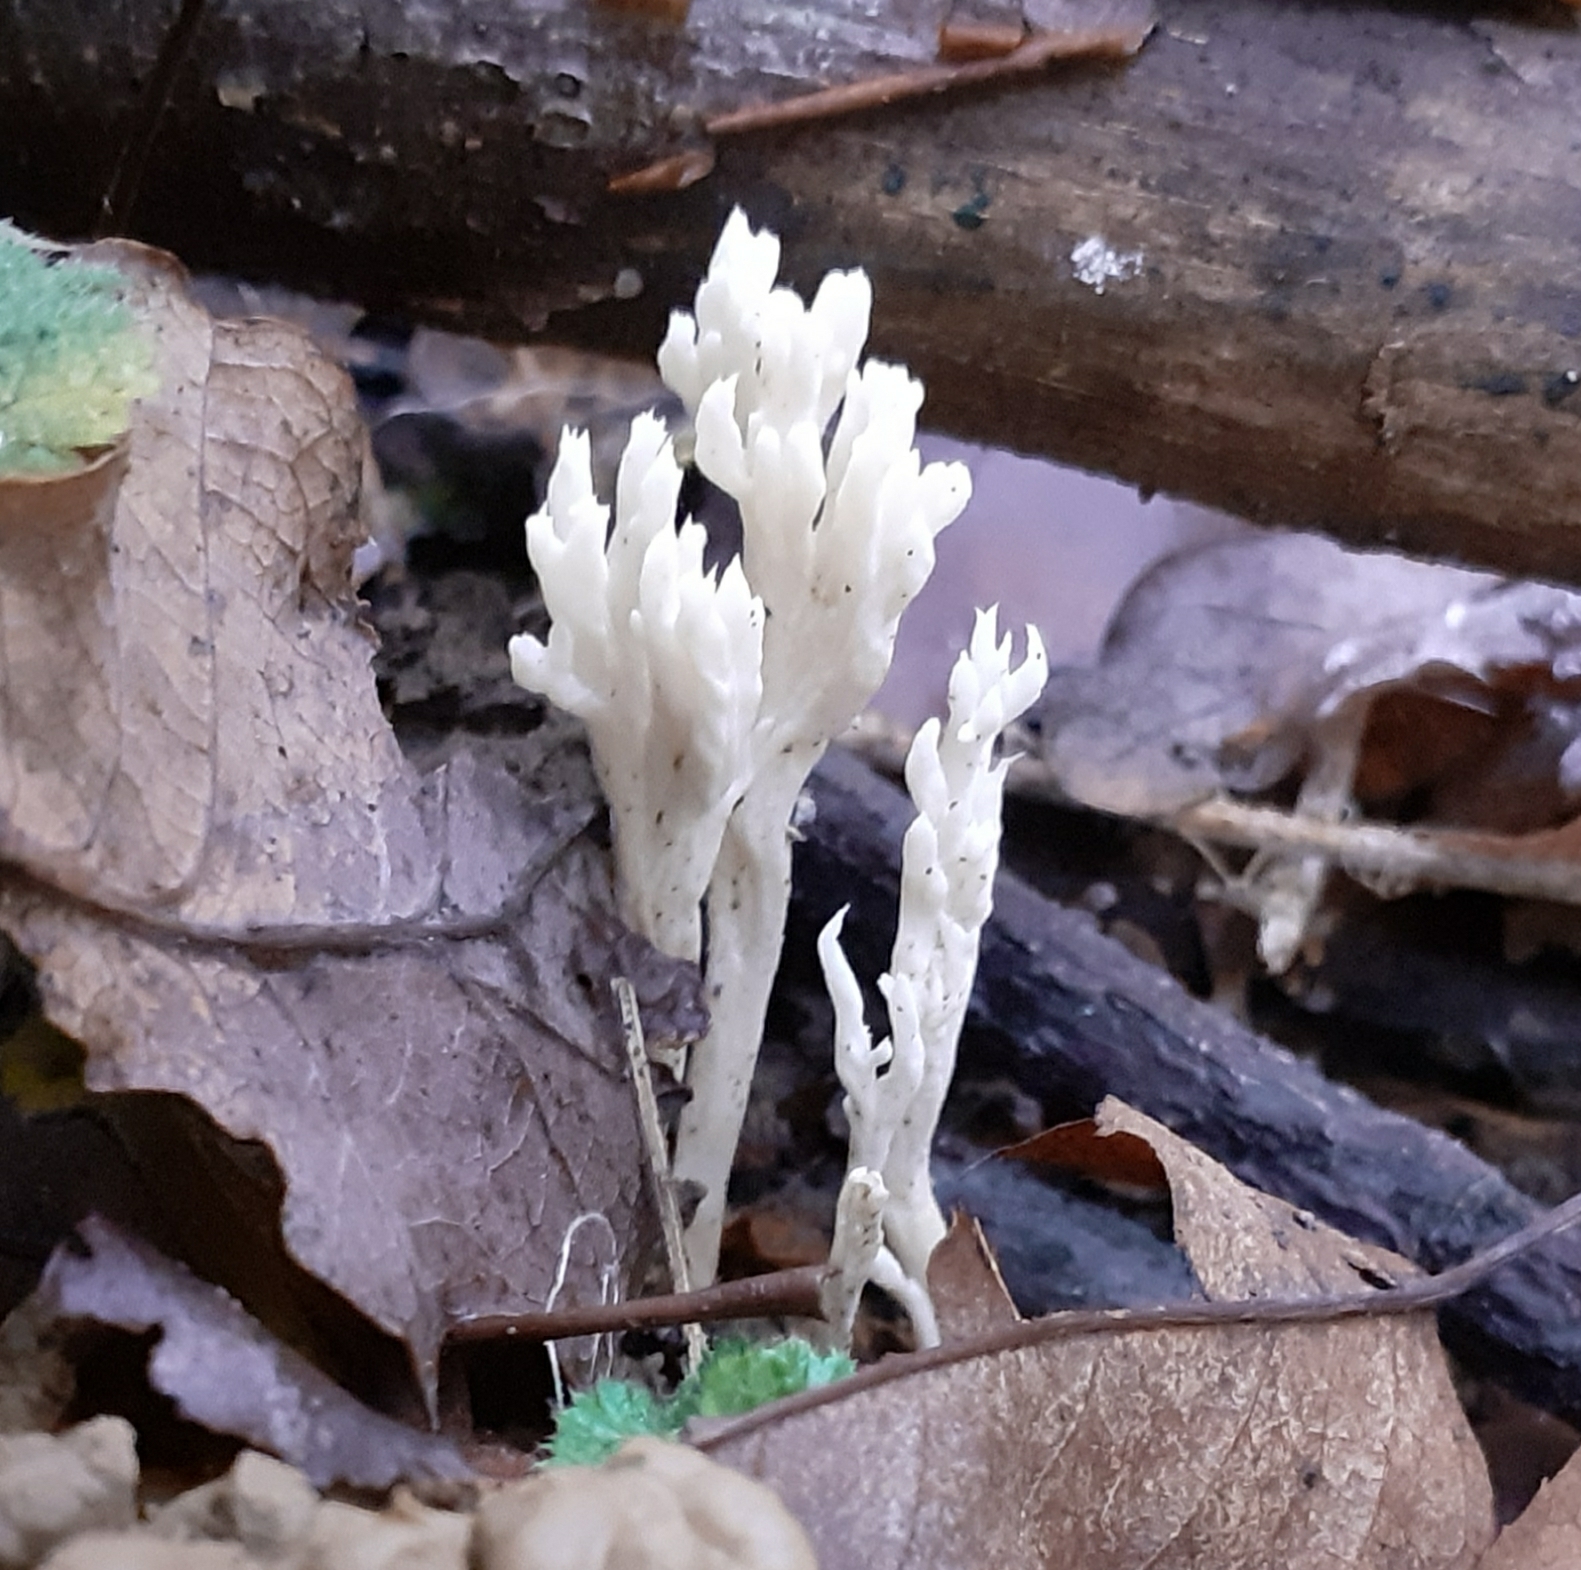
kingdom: Fungi
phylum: Basidiomycota
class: Agaricomycetes
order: Cantharellales
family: Hydnaceae
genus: Clavulina
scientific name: Clavulina coralloides
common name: Crested coral
